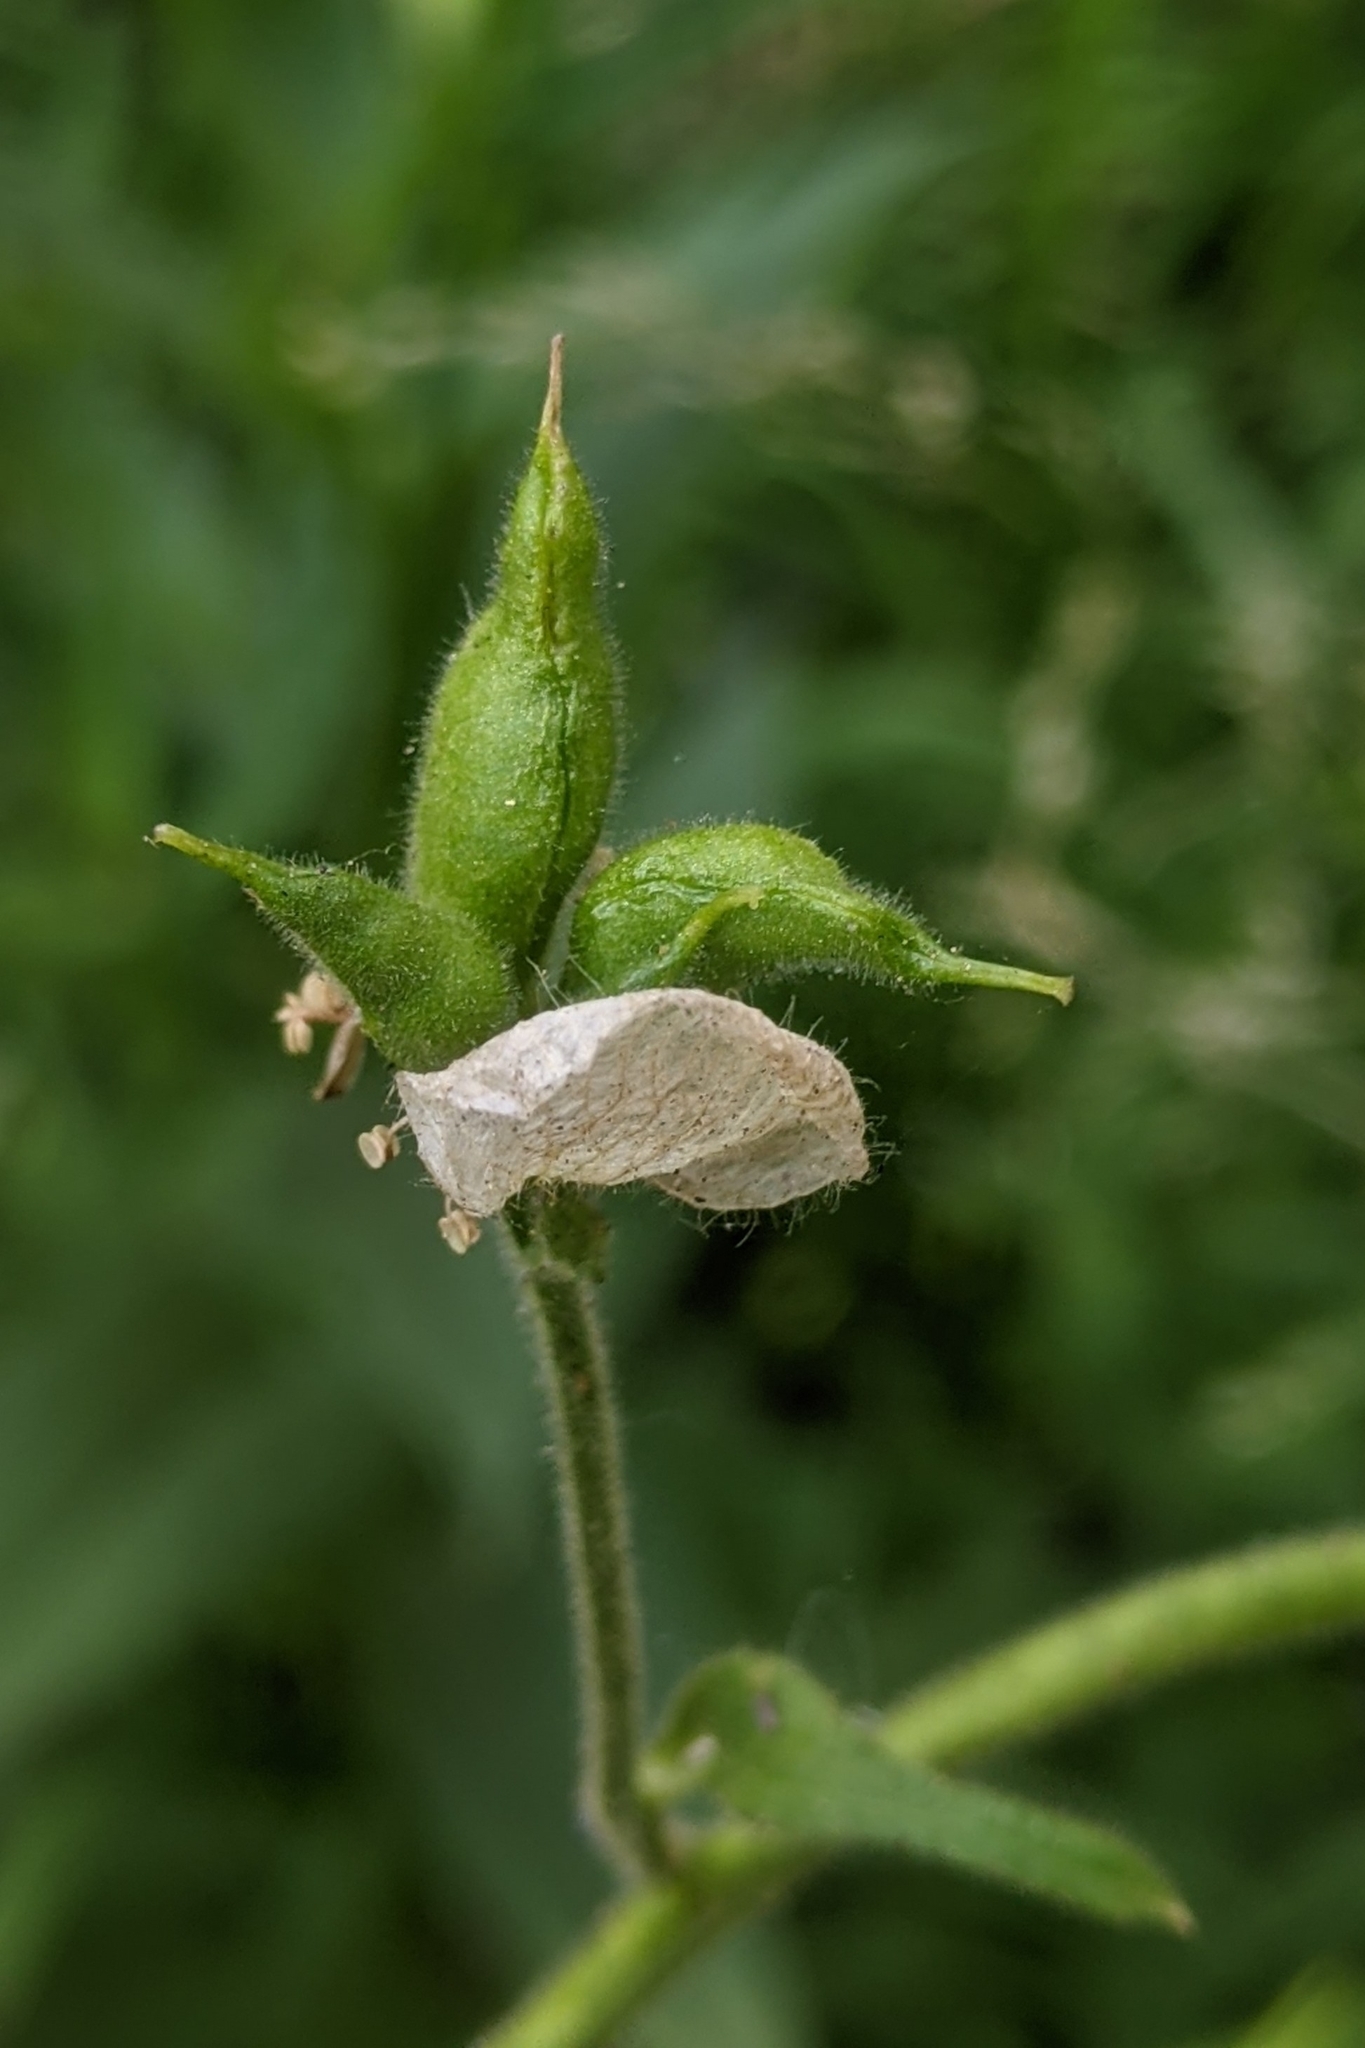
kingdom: Plantae
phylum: Tracheophyta
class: Magnoliopsida
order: Ranunculales
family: Ranunculaceae
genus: Aconitum
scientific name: Aconitum columbianum
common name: Columbia aconite
